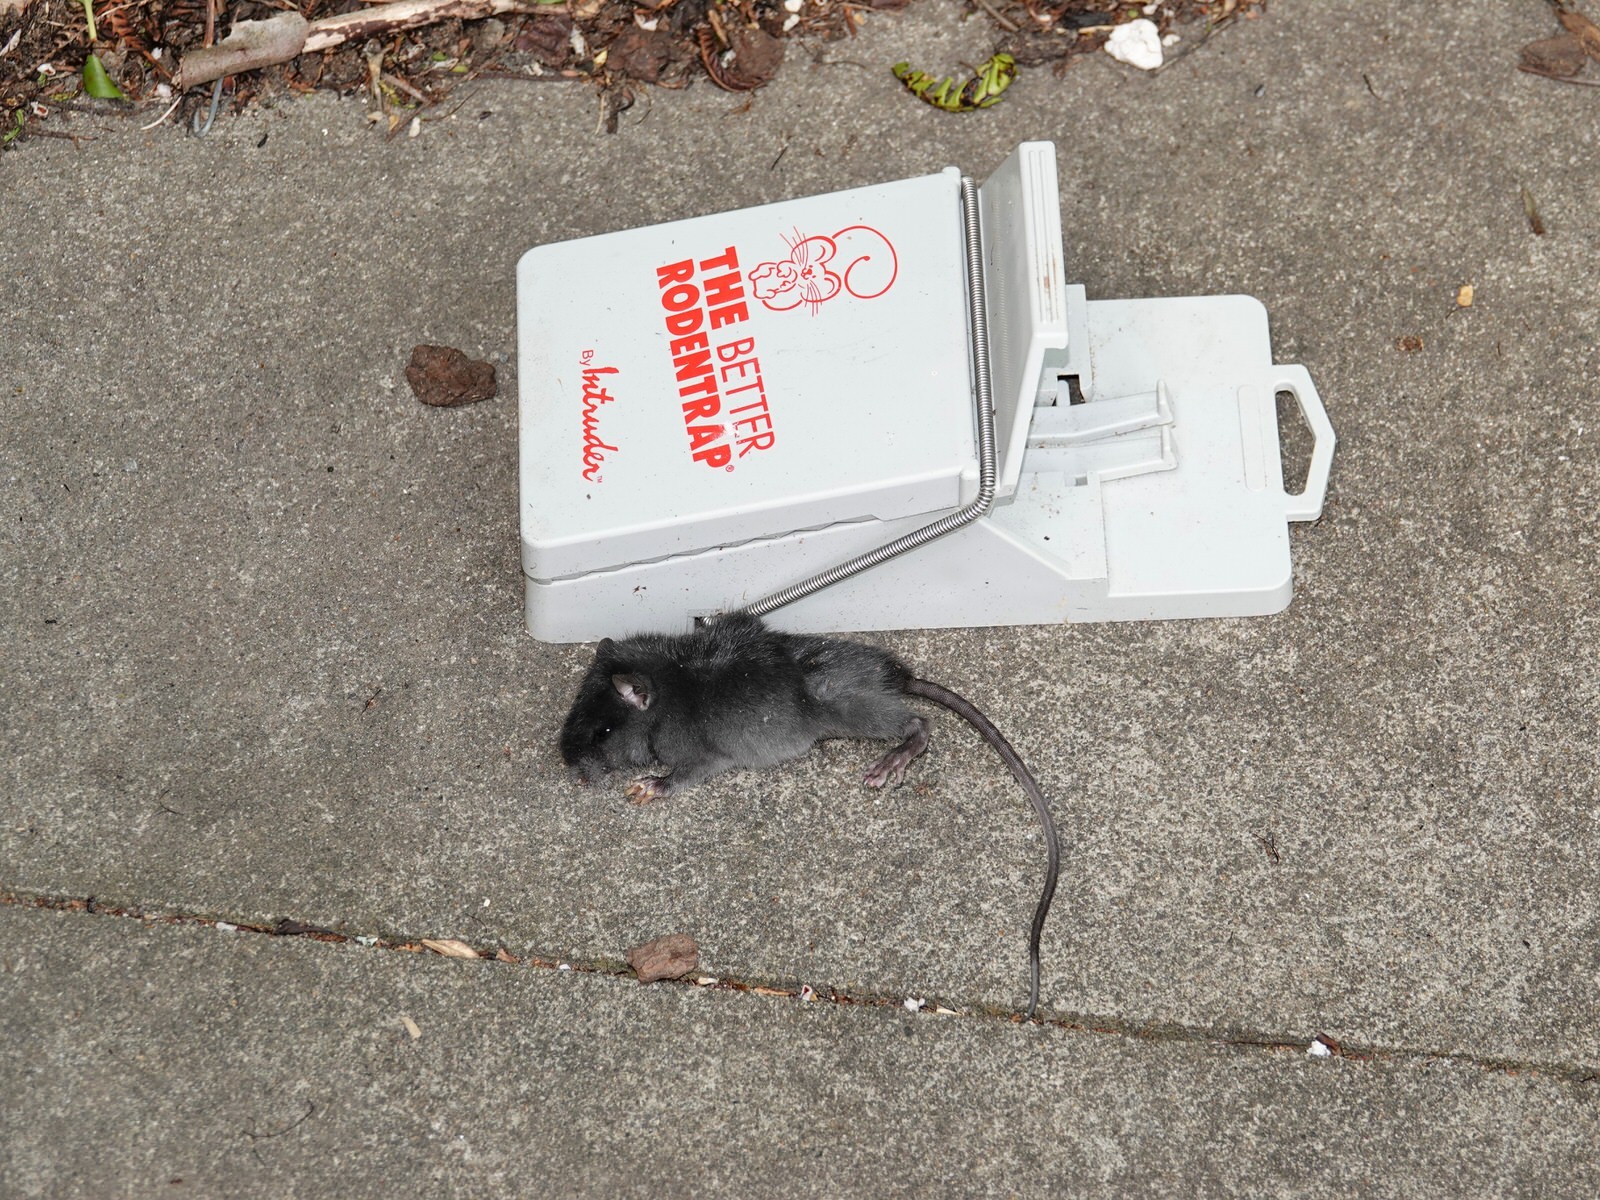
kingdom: Animalia
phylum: Chordata
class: Mammalia
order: Rodentia
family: Muridae
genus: Rattus
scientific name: Rattus rattus
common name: Black rat
